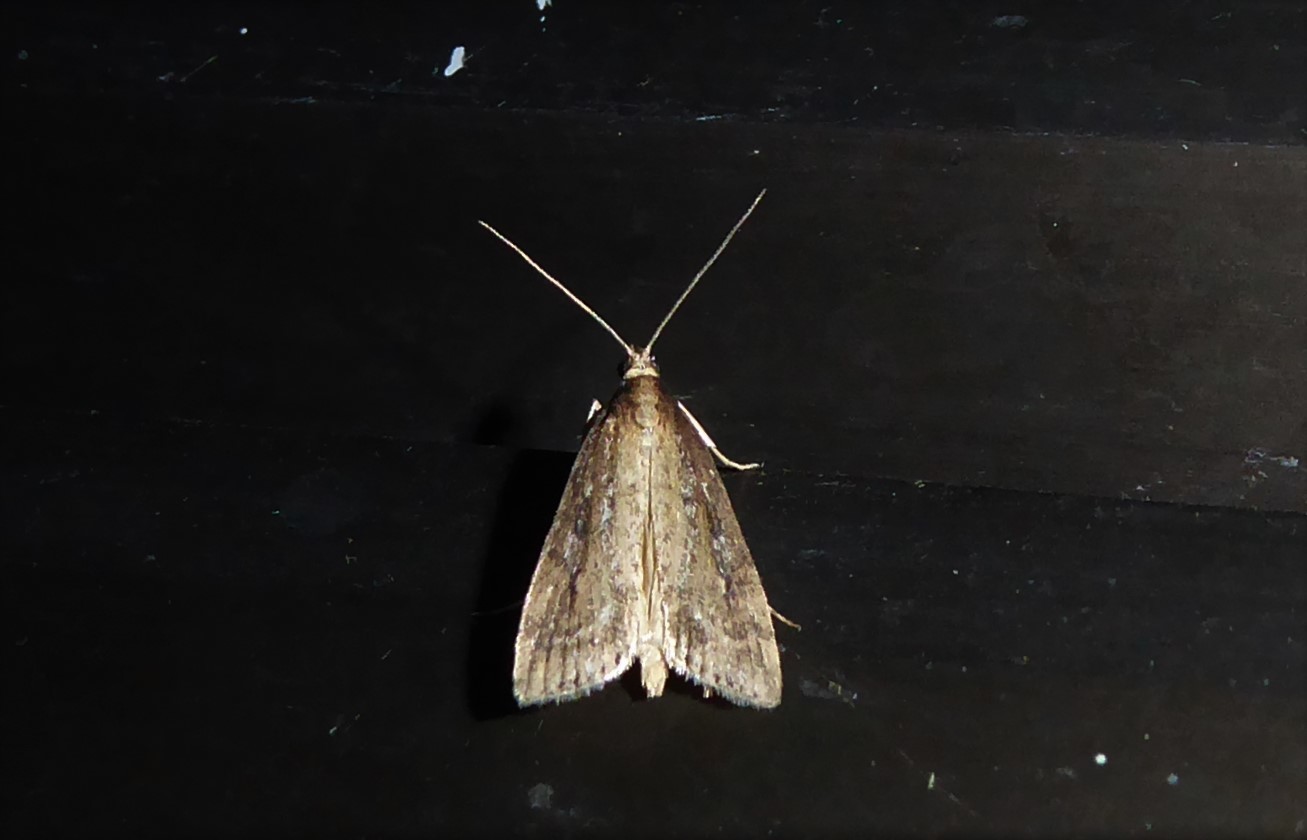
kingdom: Animalia
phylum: Arthropoda
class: Insecta
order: Lepidoptera
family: Crambidae
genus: Eudonia
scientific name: Eudonia octophora
